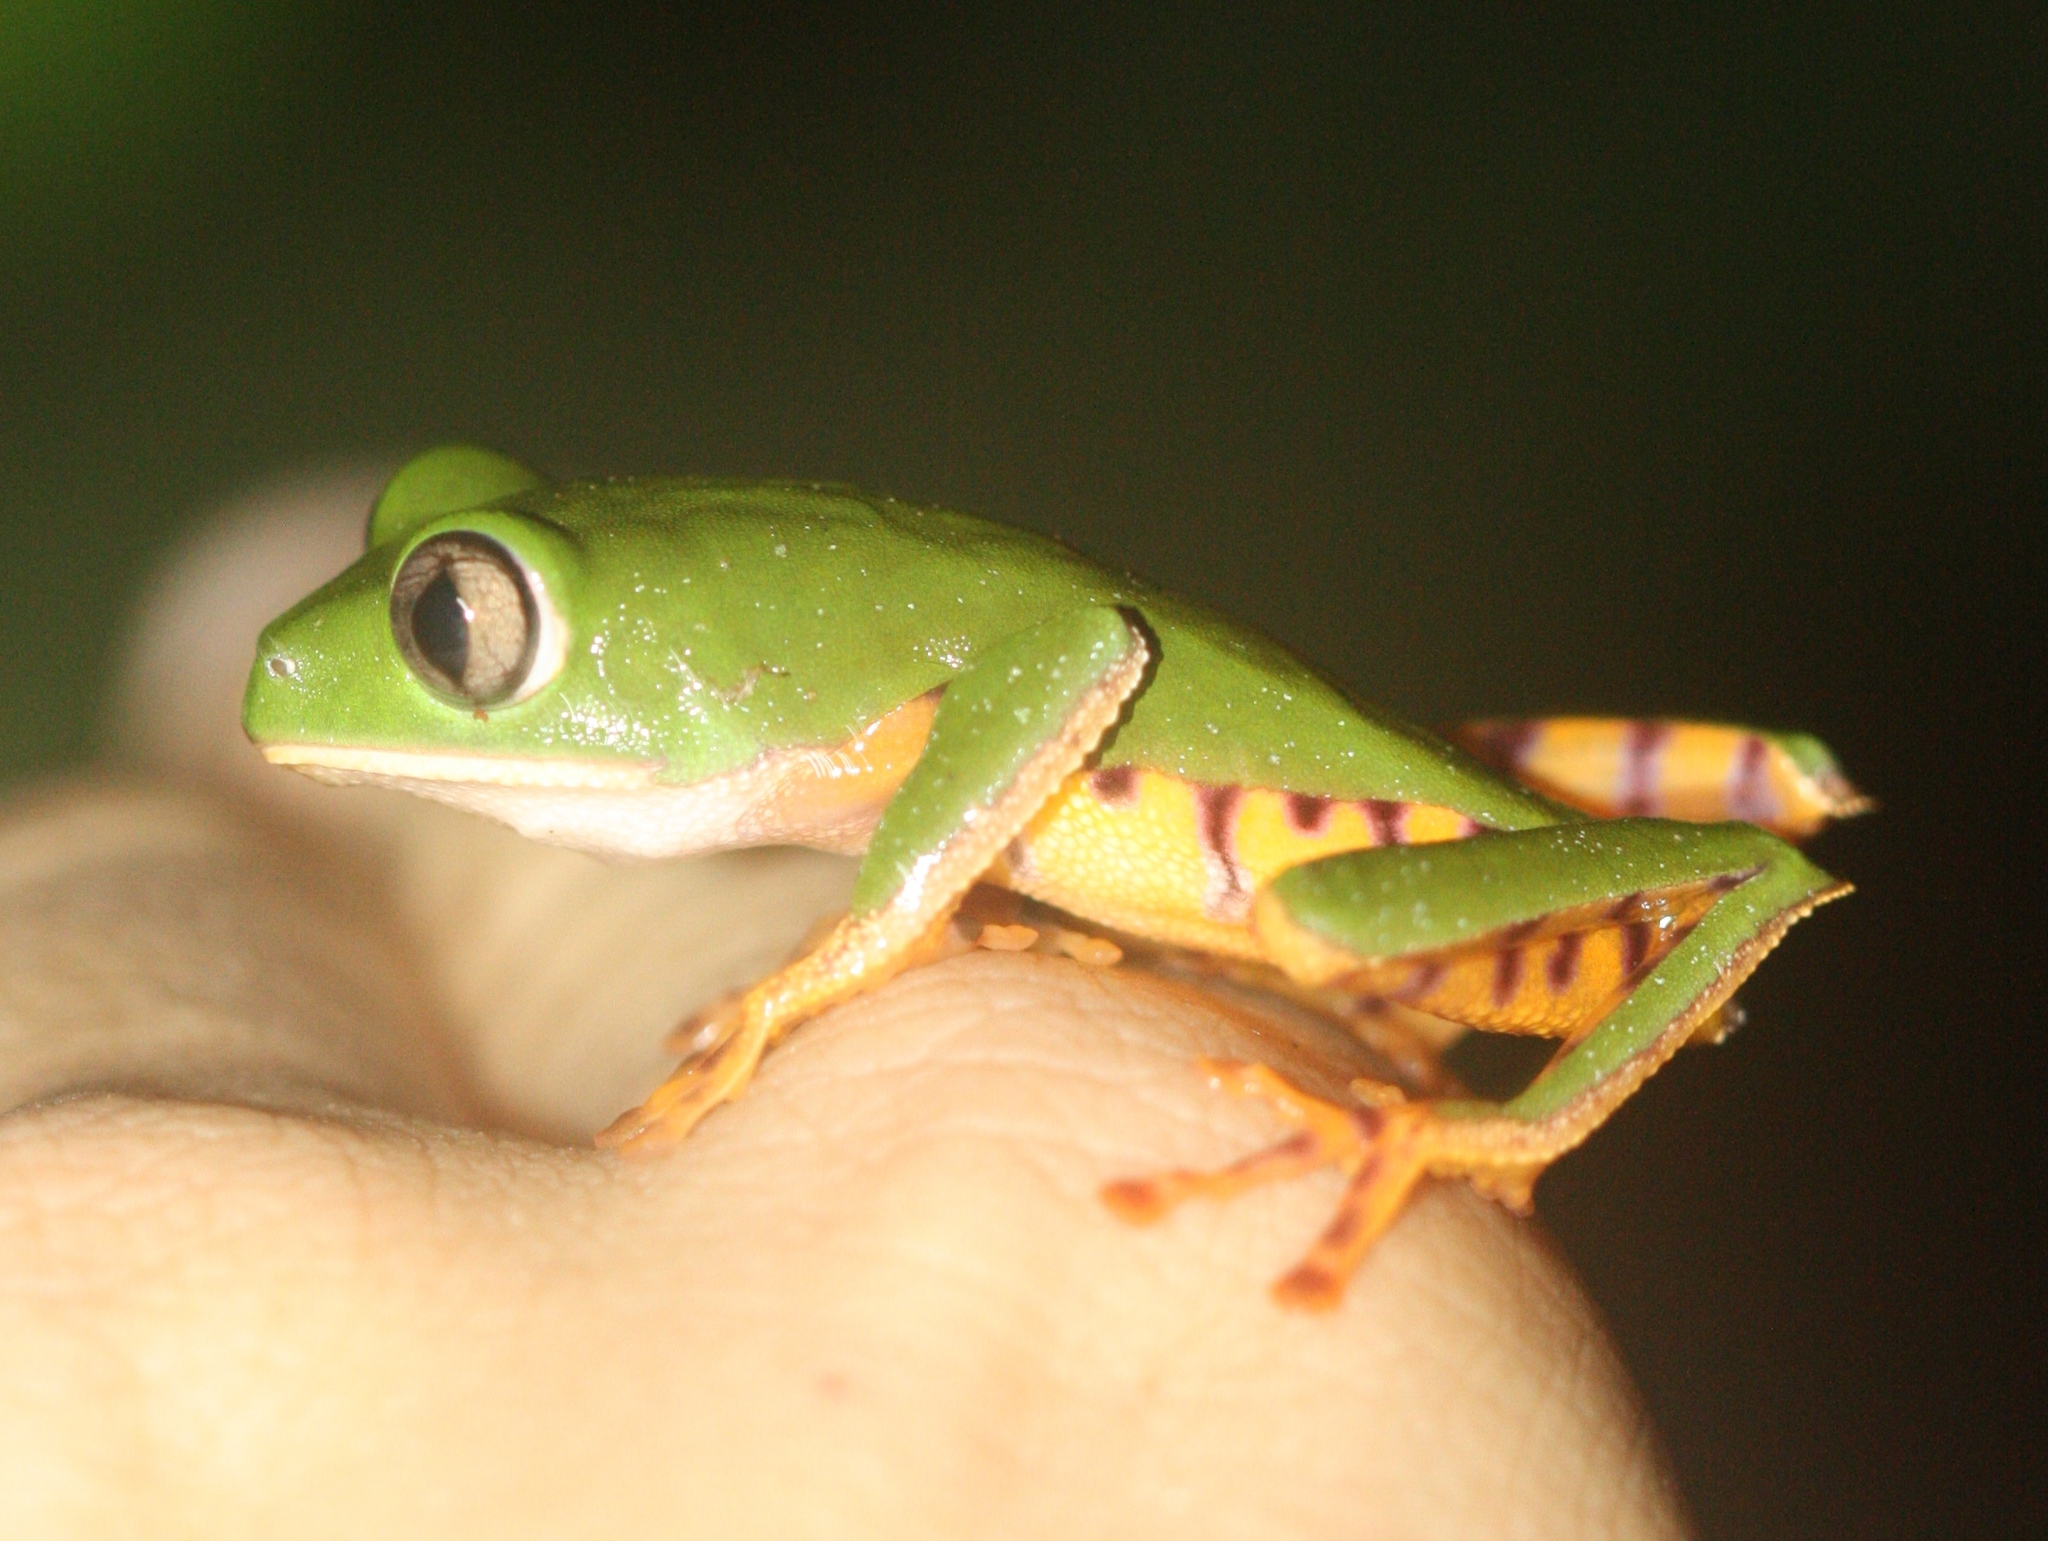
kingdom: Animalia
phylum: Chordata
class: Amphibia
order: Anura
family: Phyllomedusidae
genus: Callimedusa
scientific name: Callimedusa tomopterna
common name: Tiger-striped leaf frog
